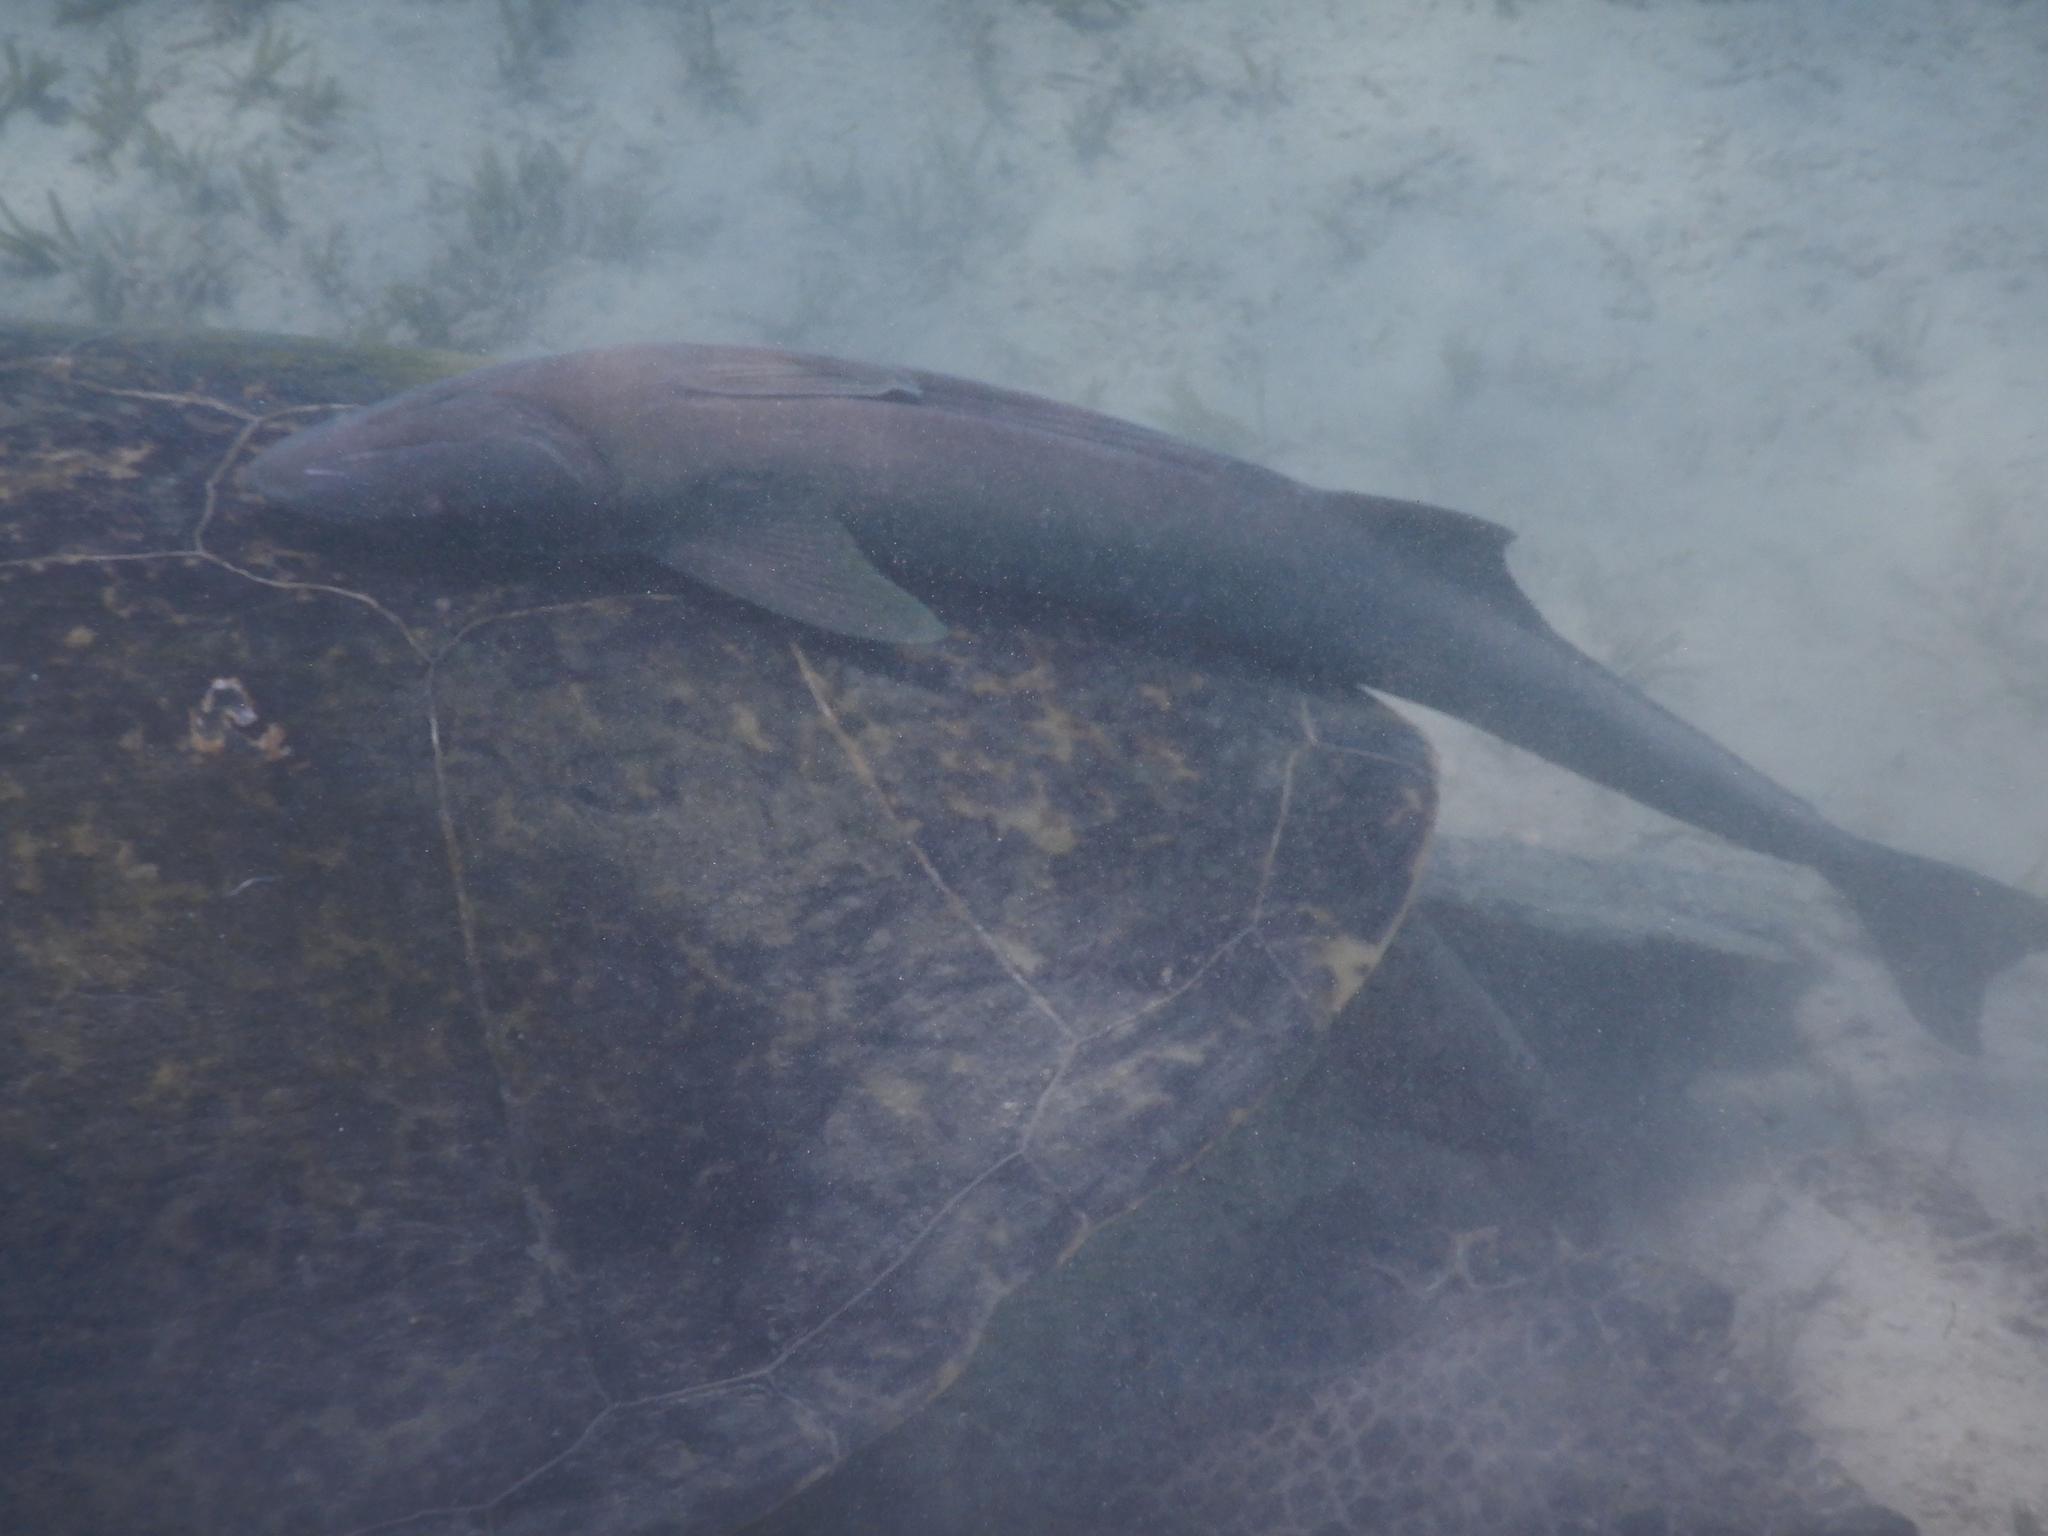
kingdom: Animalia
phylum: Chordata
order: Perciformes
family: Echeneidae
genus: Echeneis
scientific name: Echeneis naucrates
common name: Sharksucker
